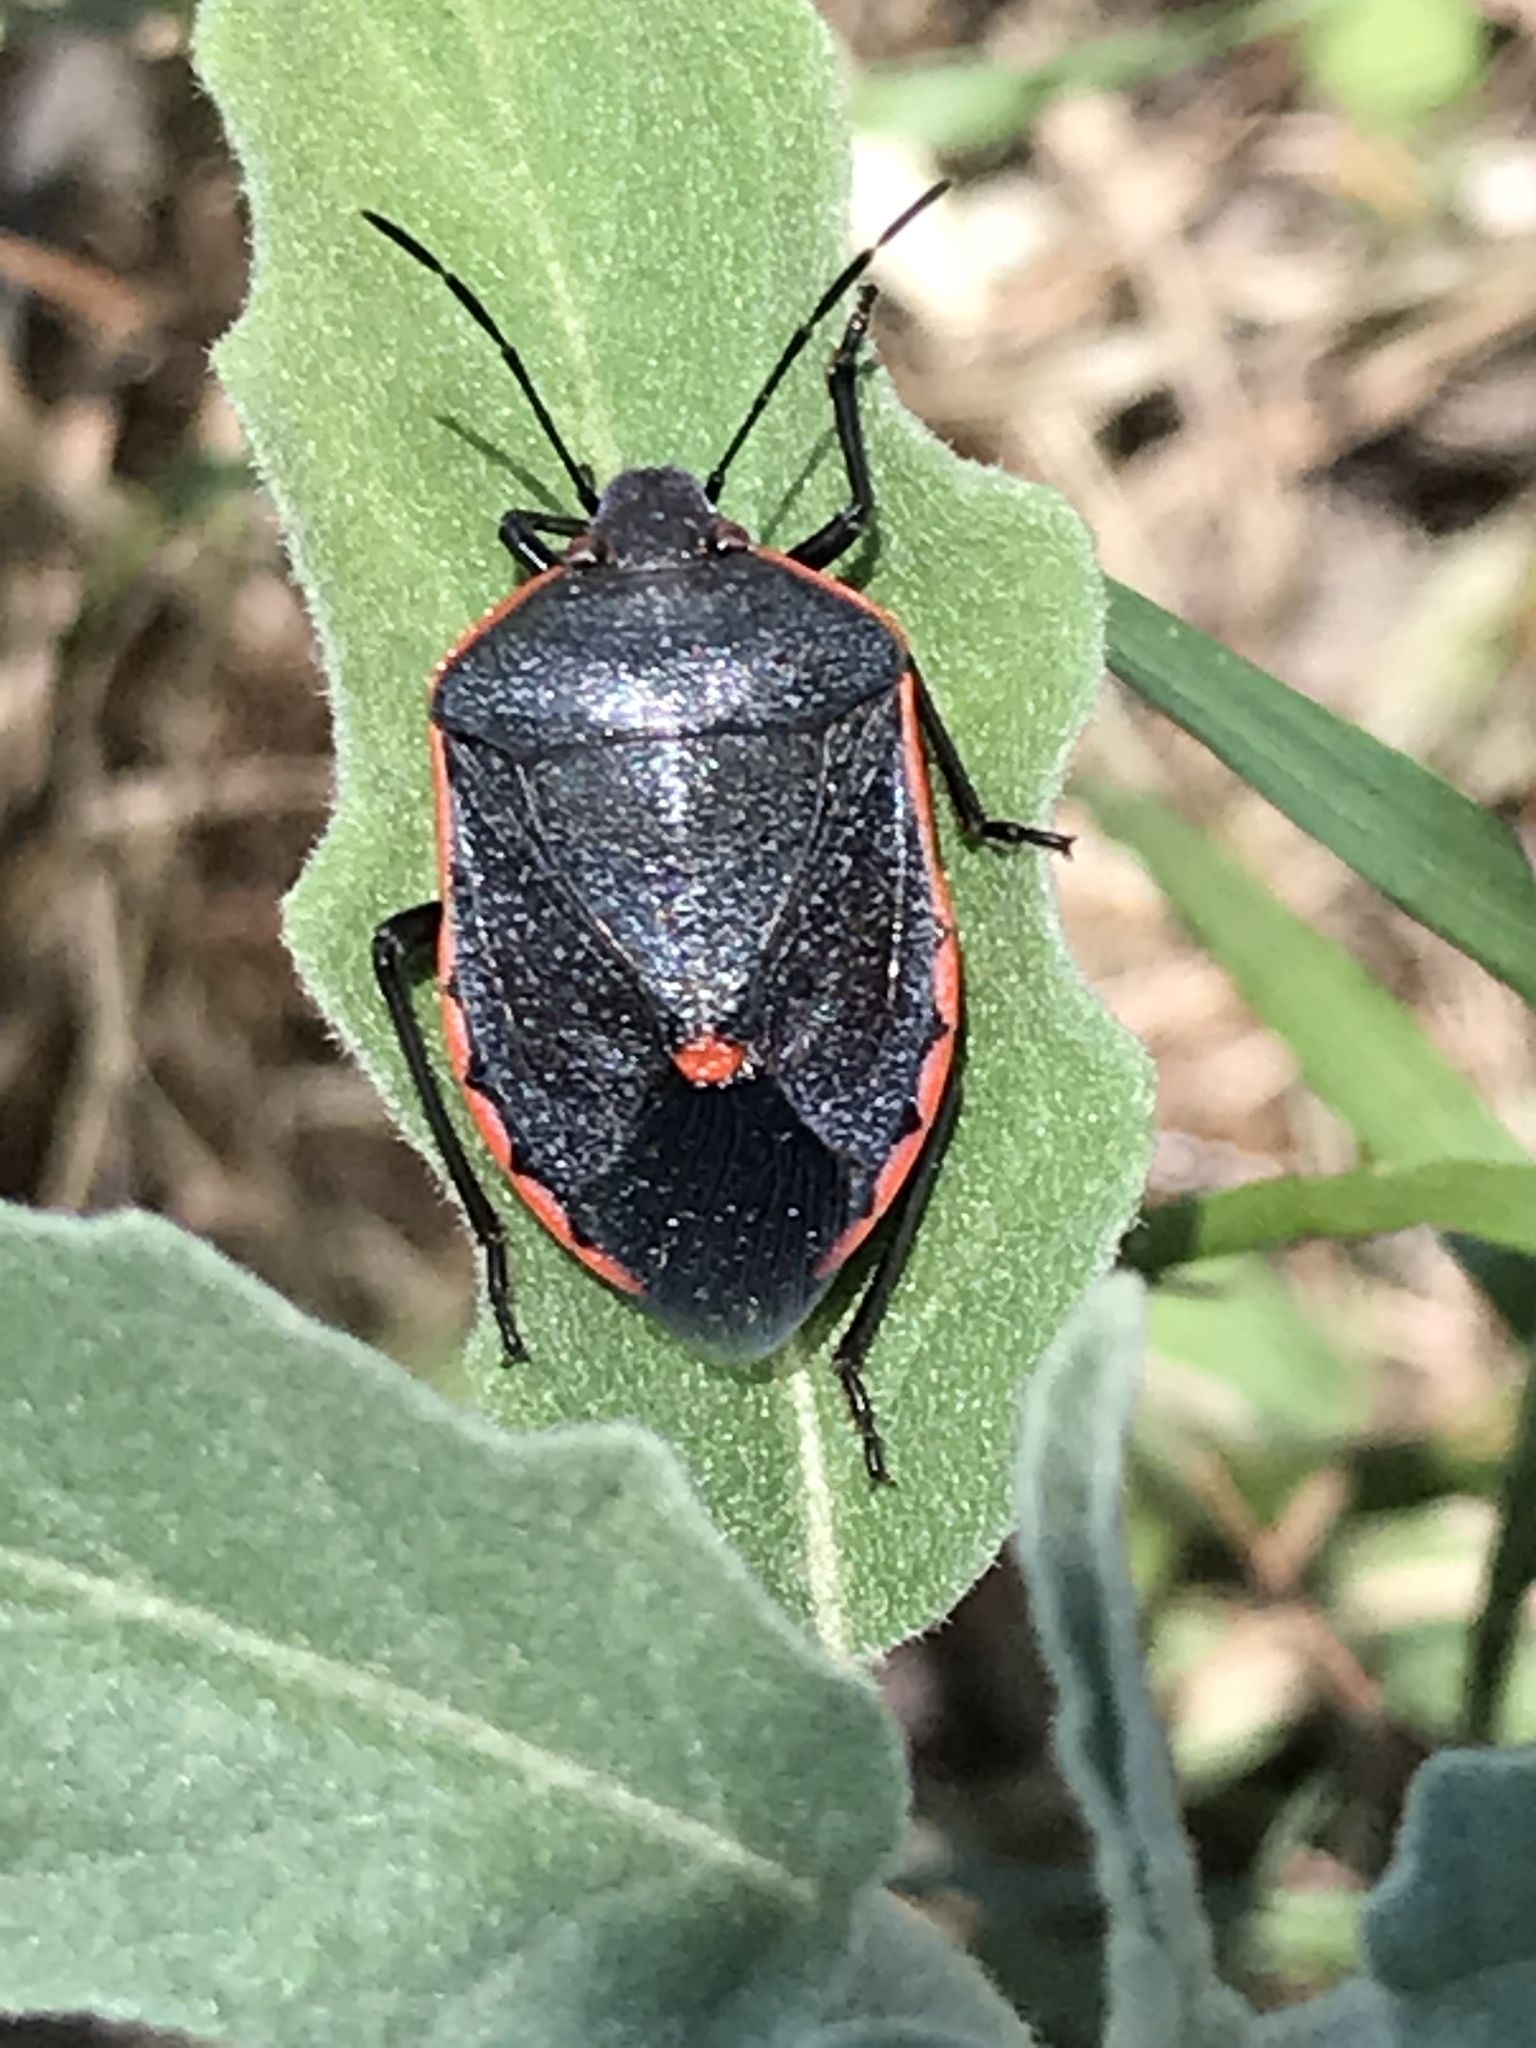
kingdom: Animalia
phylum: Arthropoda
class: Insecta
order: Hemiptera
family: Pentatomidae
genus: Chlorochroa
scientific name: Chlorochroa ligata
